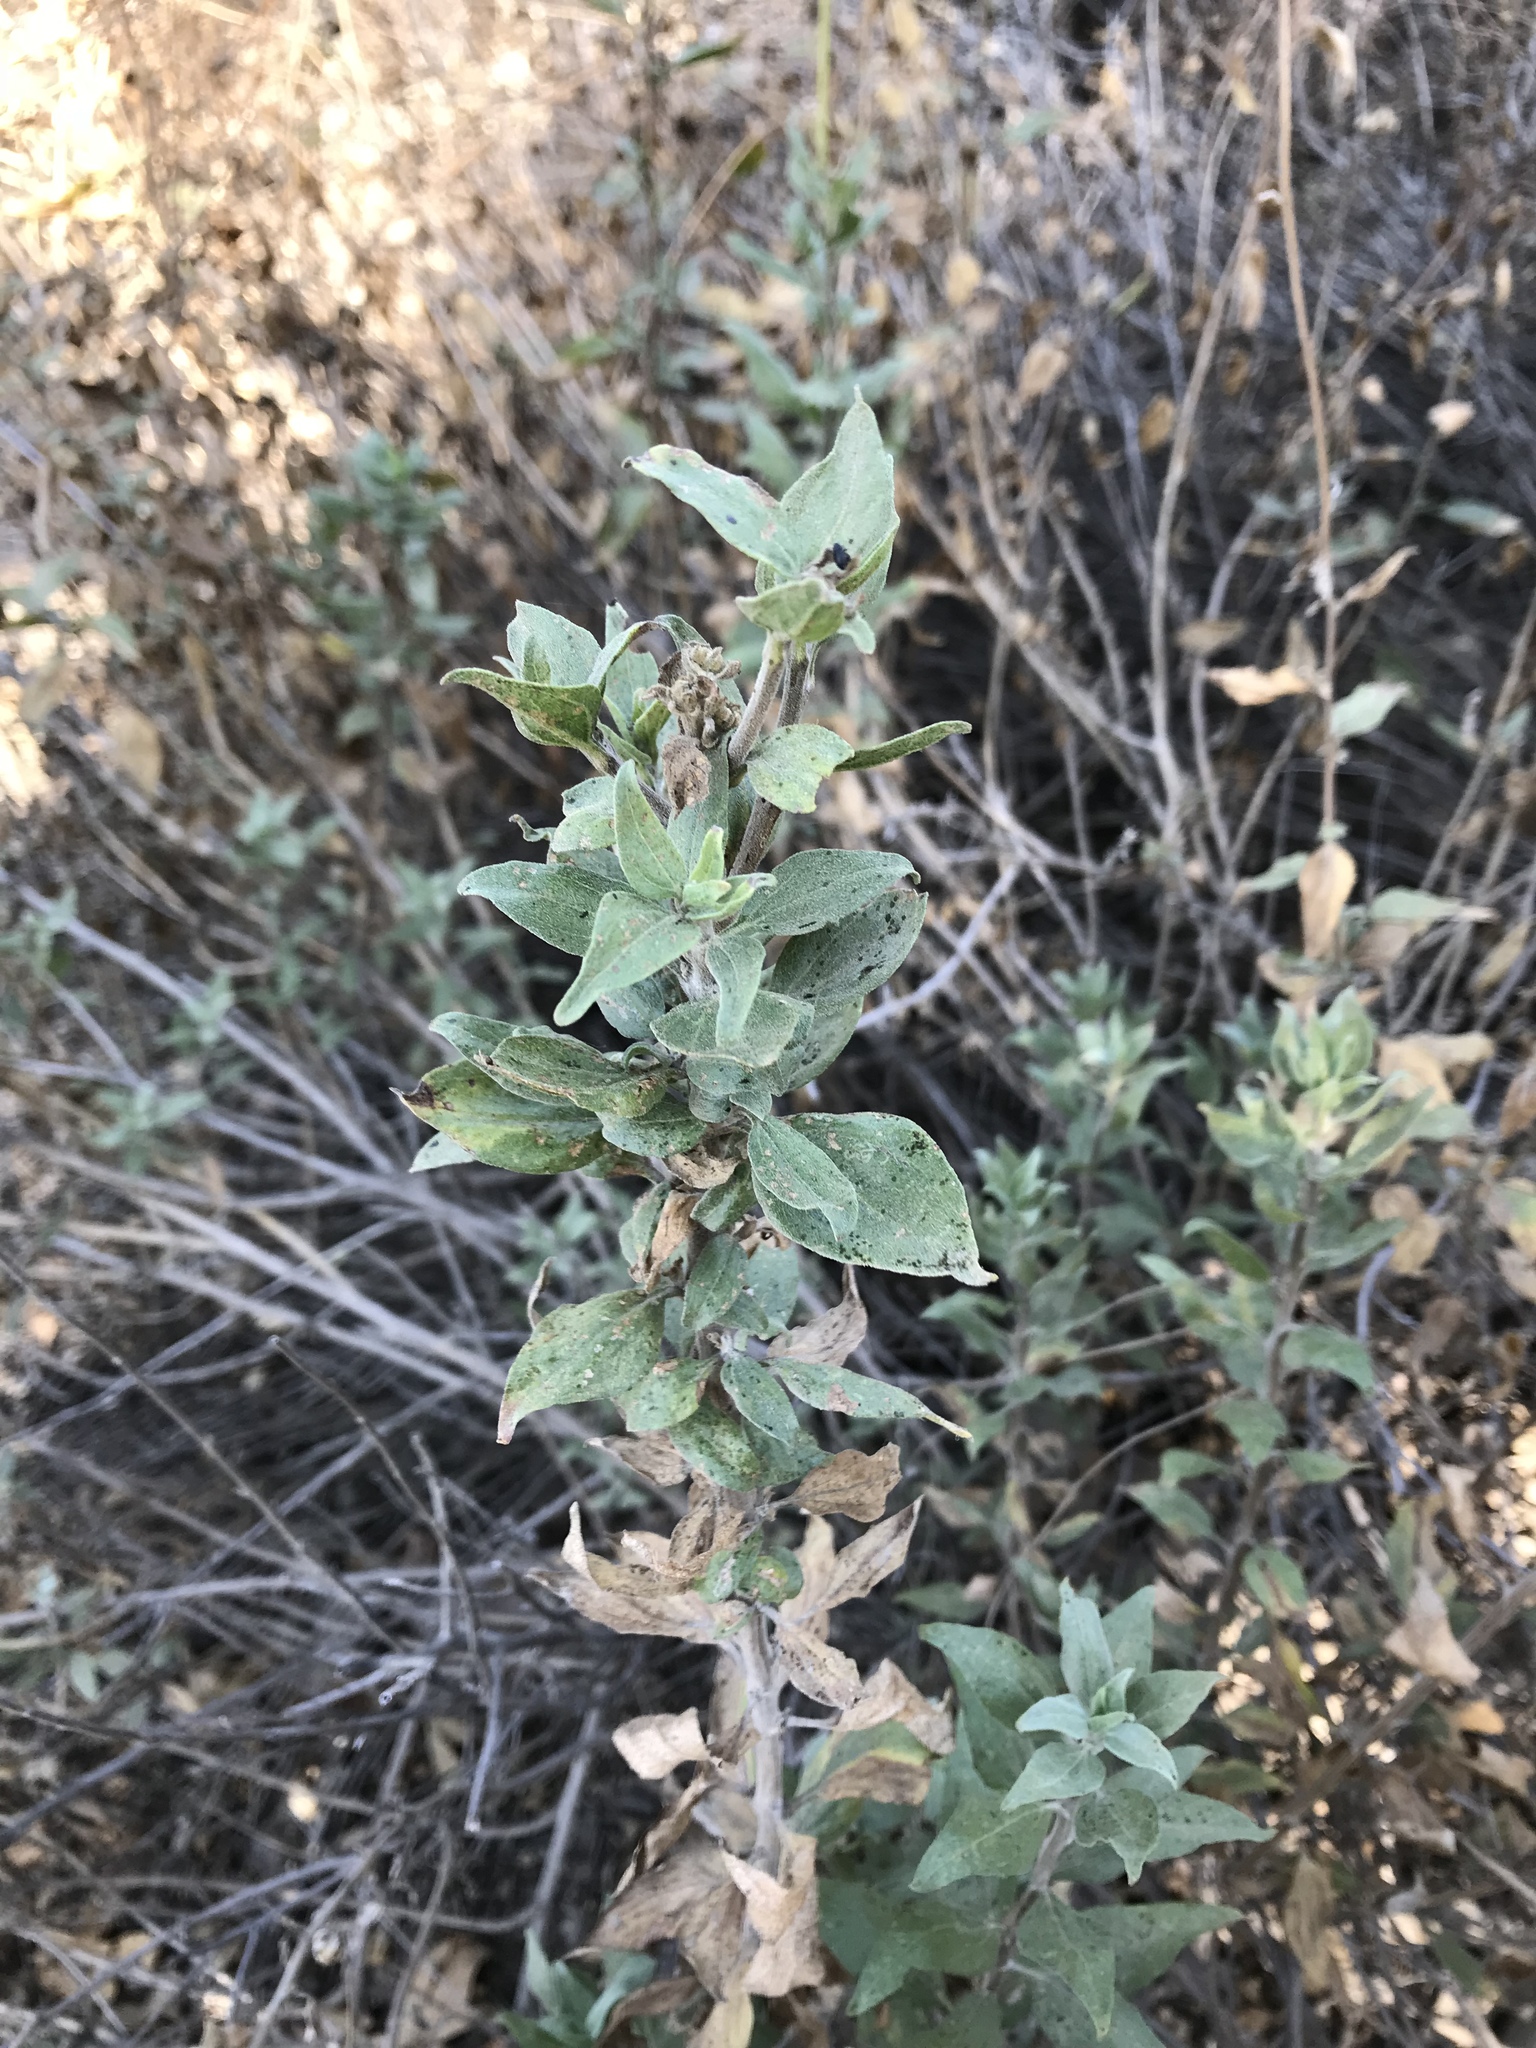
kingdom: Plantae
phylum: Tracheophyta
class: Magnoliopsida
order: Asterales
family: Asteraceae
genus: Encelia
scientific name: Encelia californica
